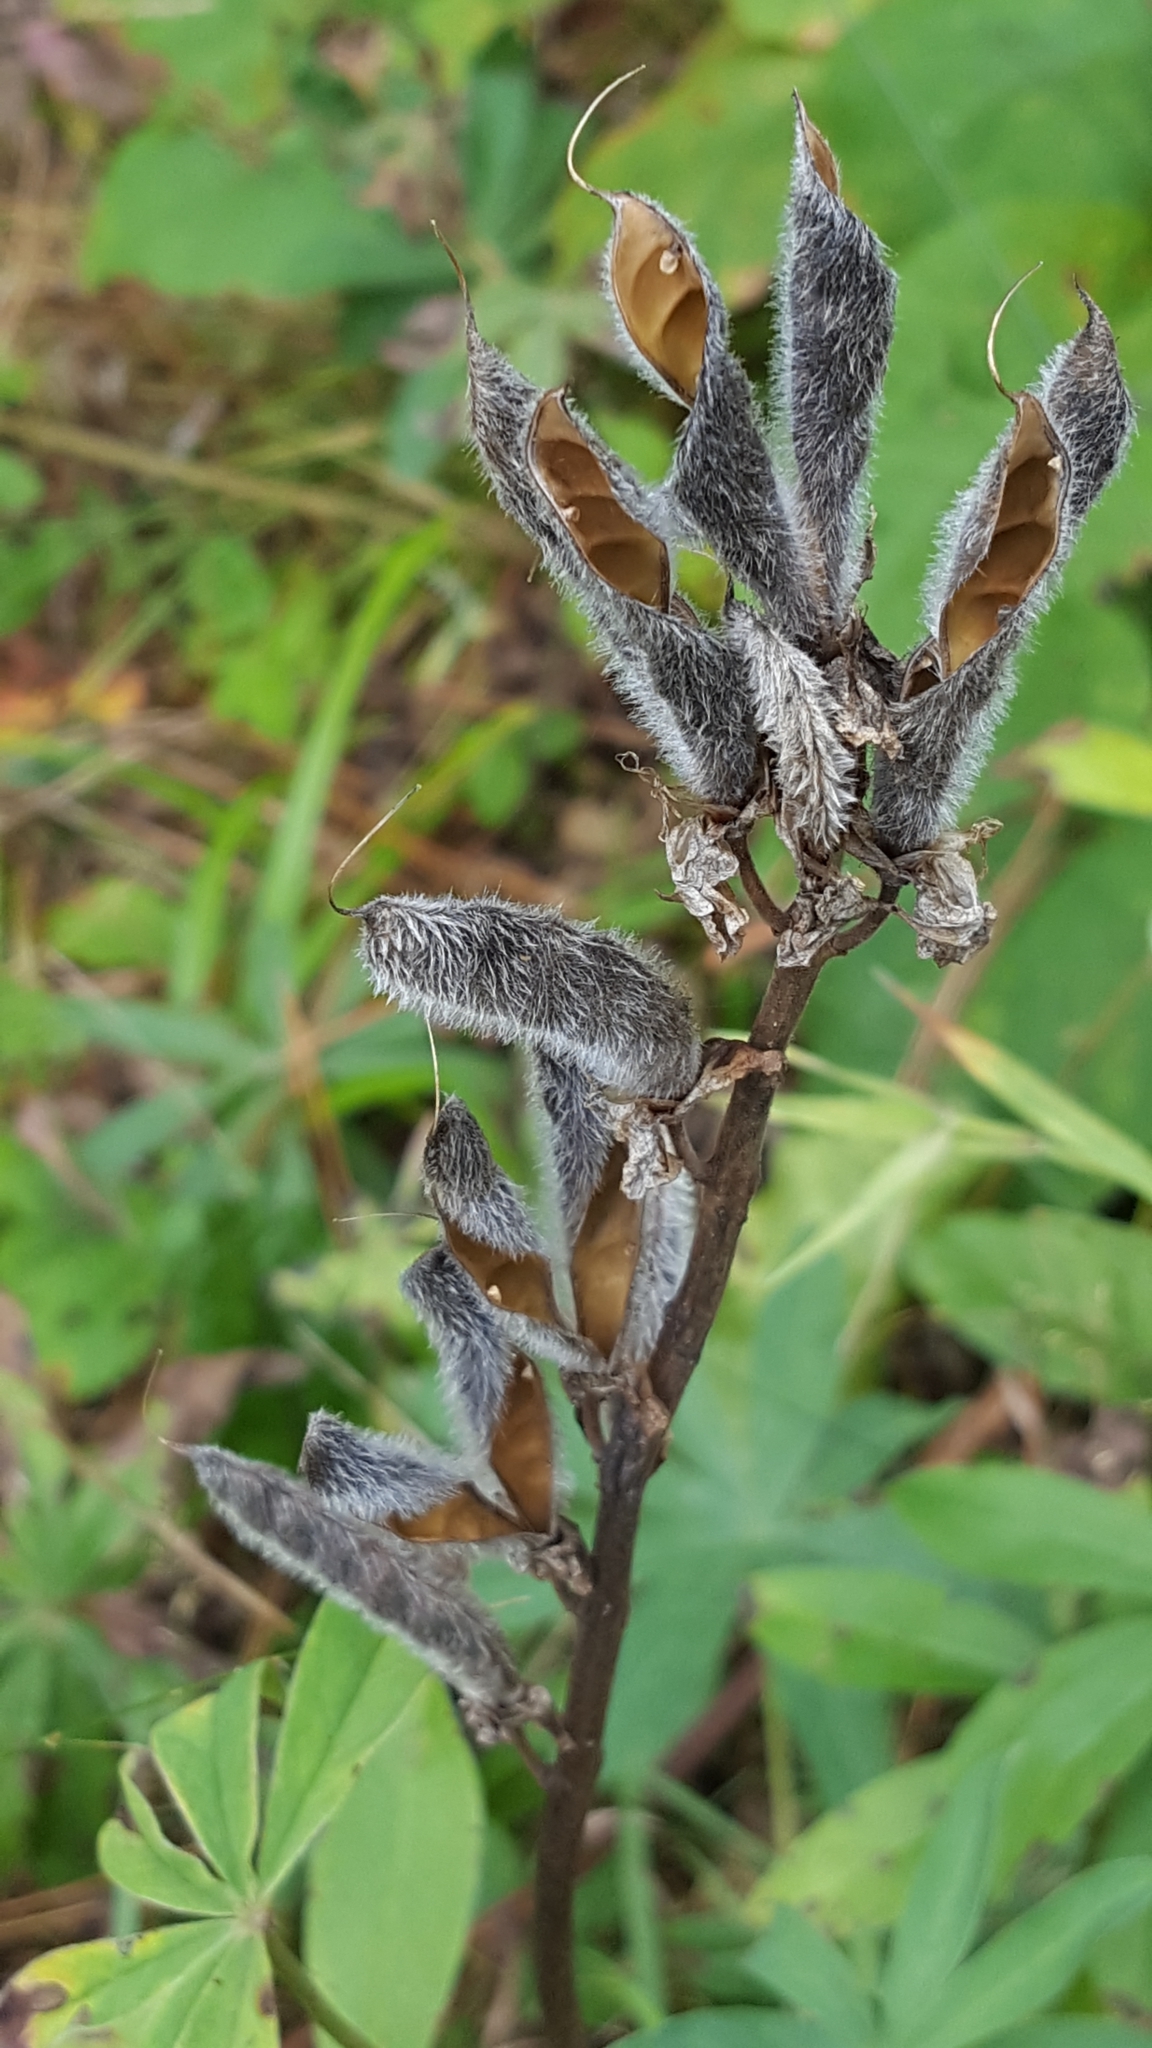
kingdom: Plantae
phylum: Tracheophyta
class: Magnoliopsida
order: Fabales
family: Fabaceae
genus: Lupinus
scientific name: Lupinus polyphyllus
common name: Garden lupin
